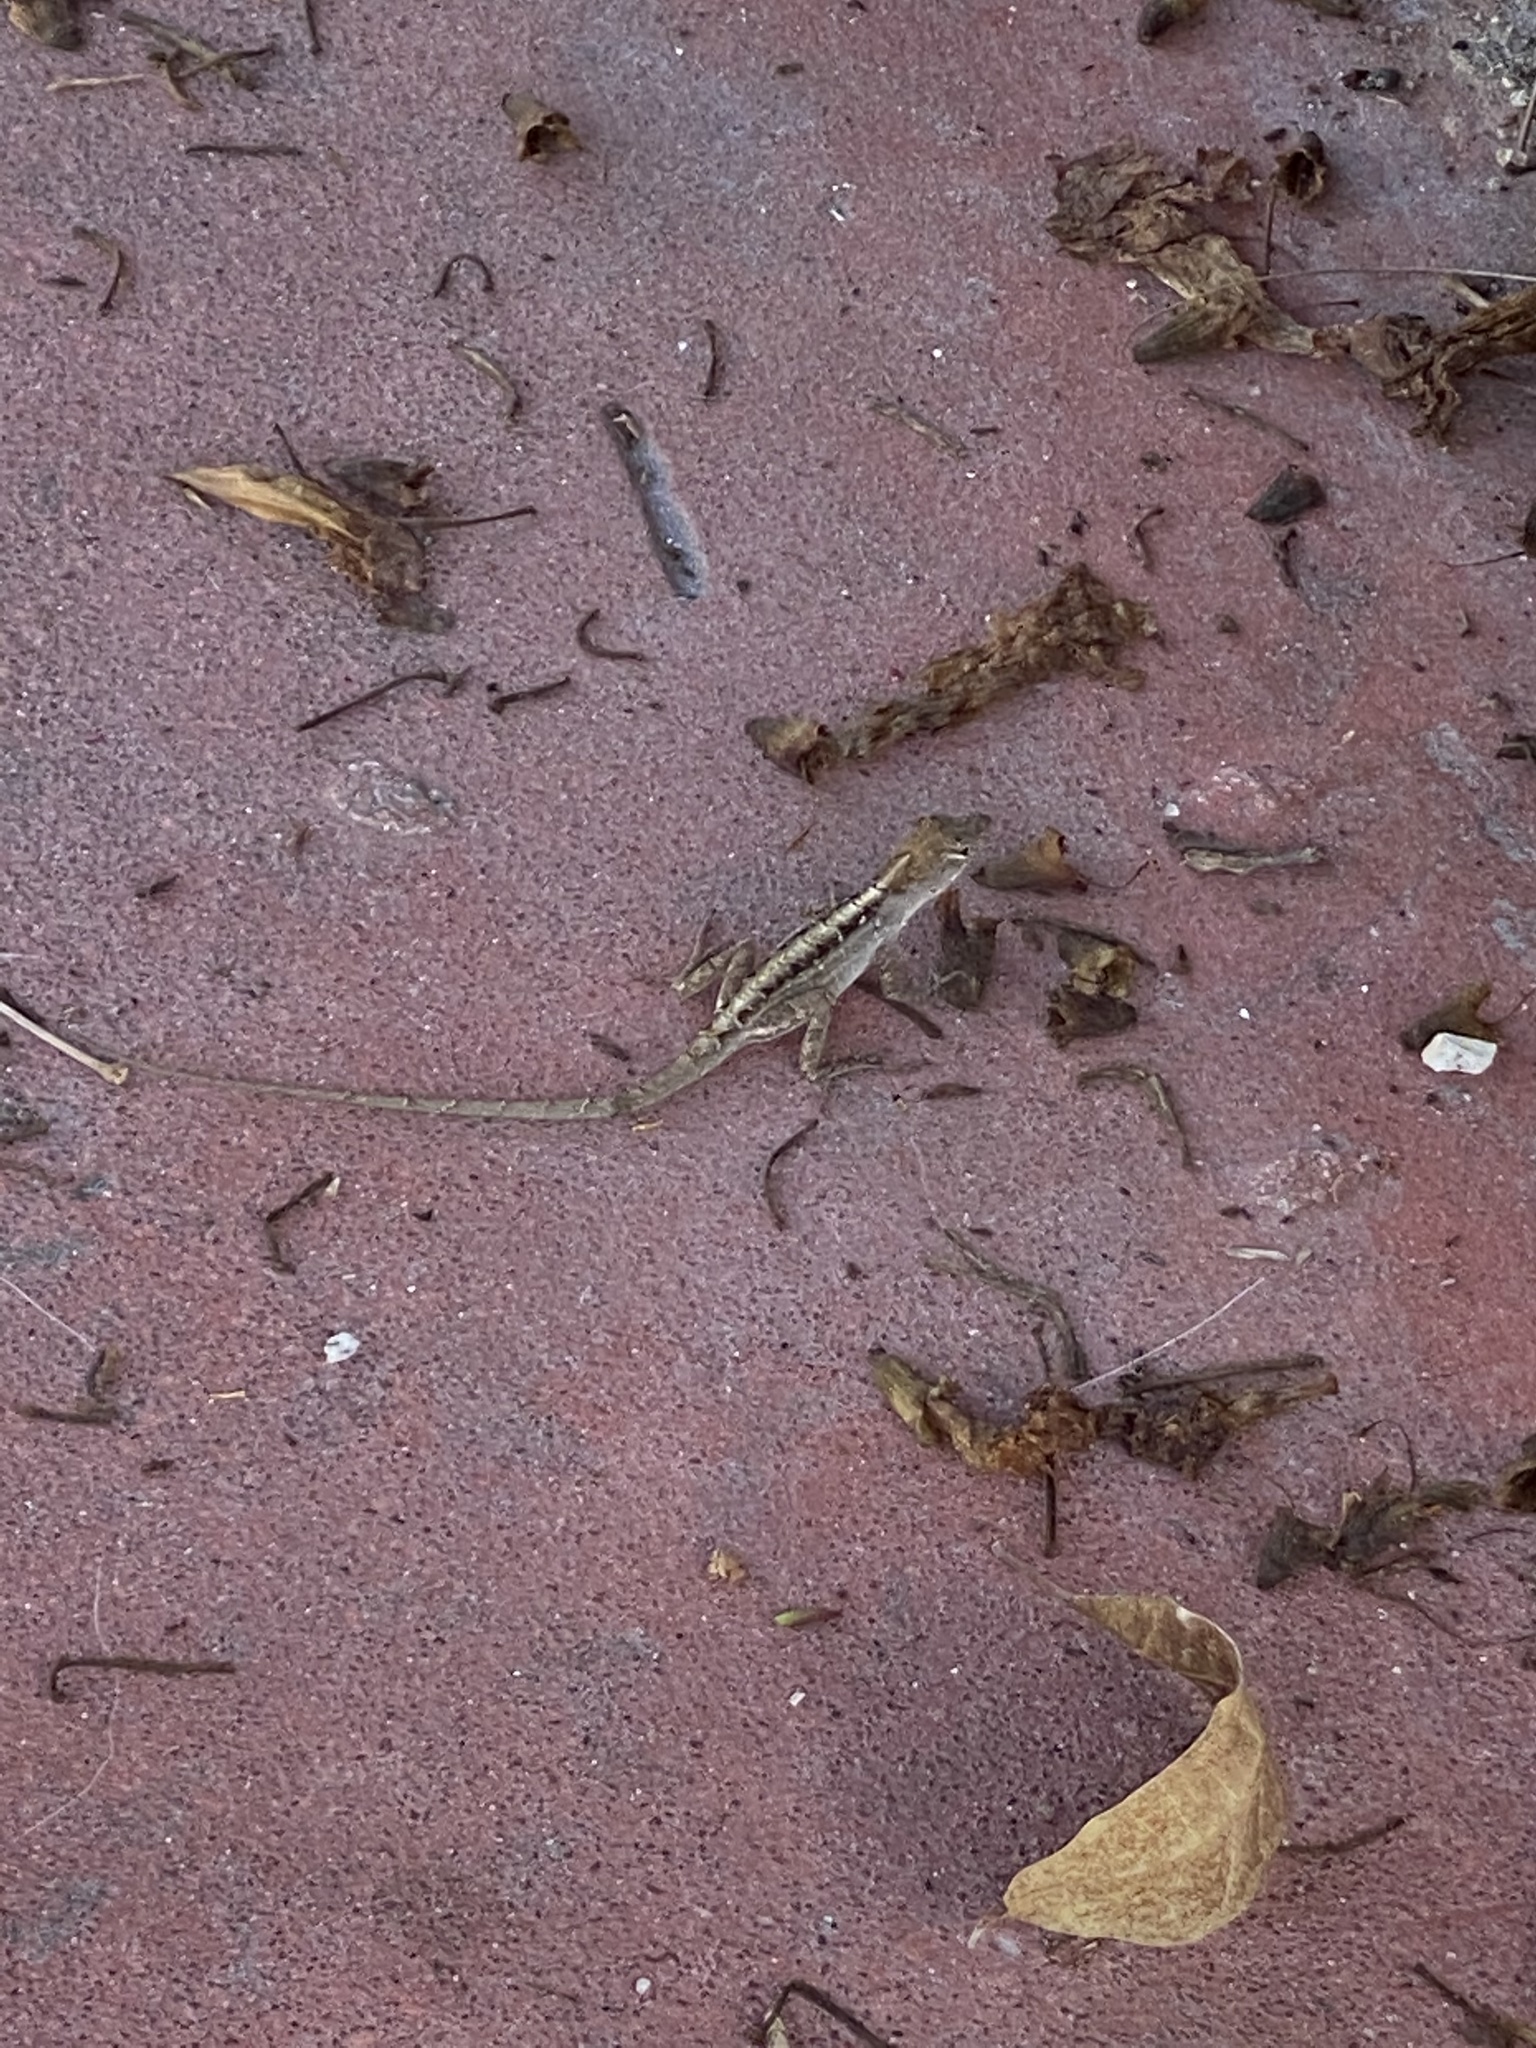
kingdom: Animalia
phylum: Chordata
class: Squamata
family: Dactyloidae
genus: Anolis
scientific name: Anolis sagrei
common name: Brown anole
